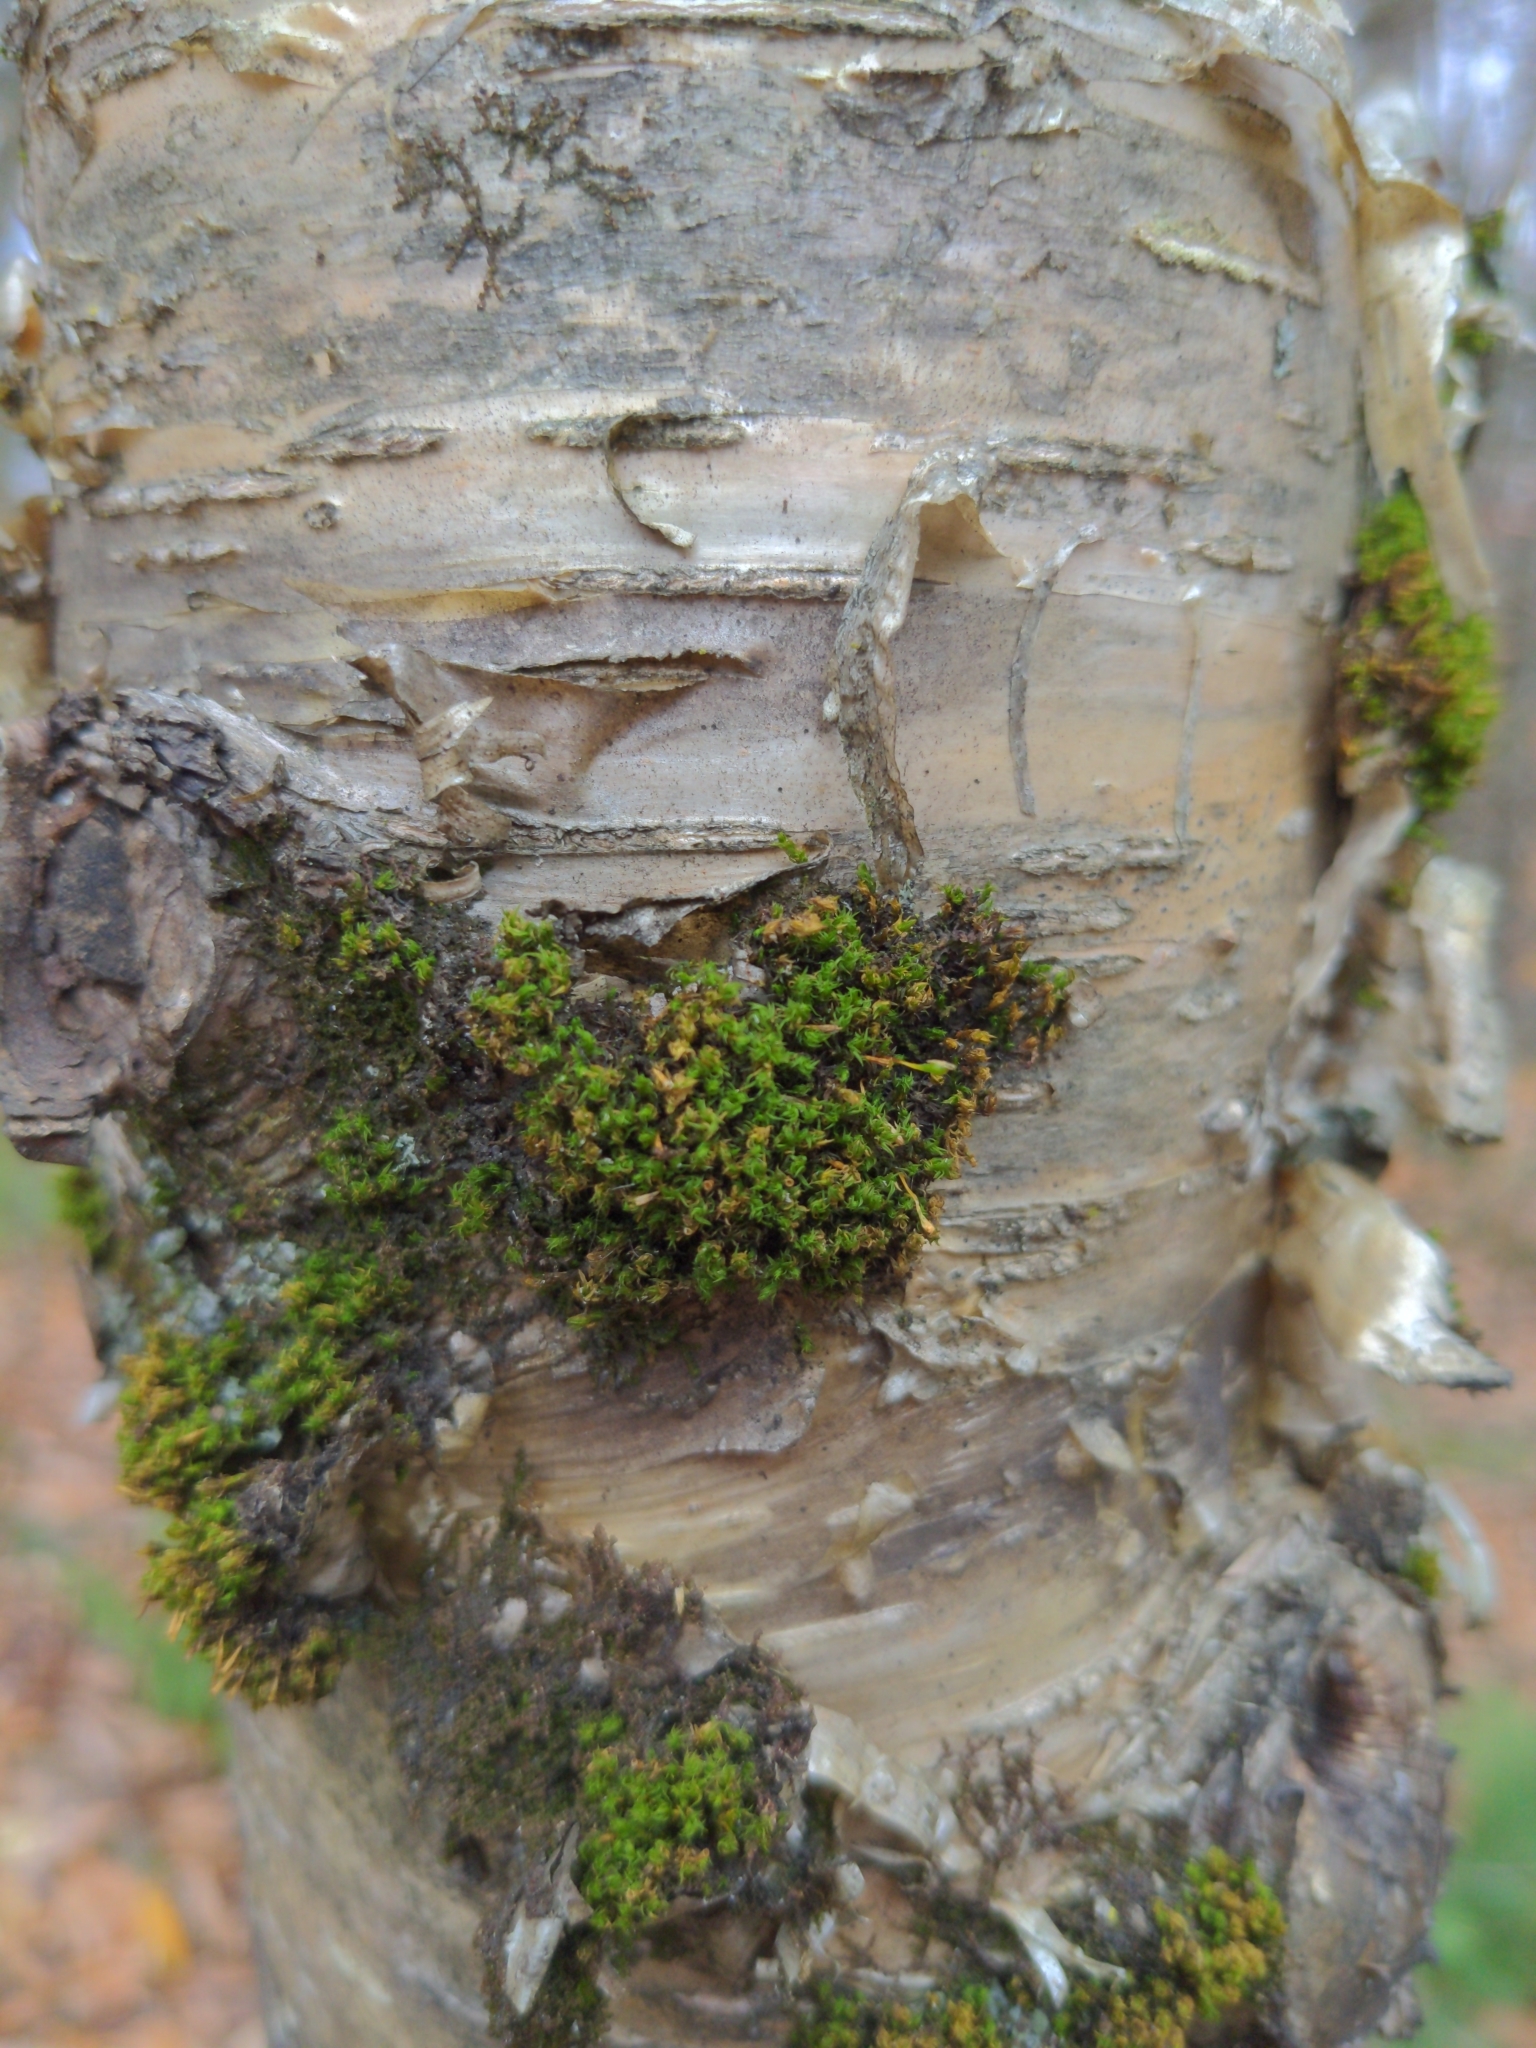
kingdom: Plantae
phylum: Bryophyta
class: Bryopsida
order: Orthotrichales
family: Orthotrichaceae
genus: Ulota
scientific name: Ulota crispa
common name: Crisped pincushion moss
